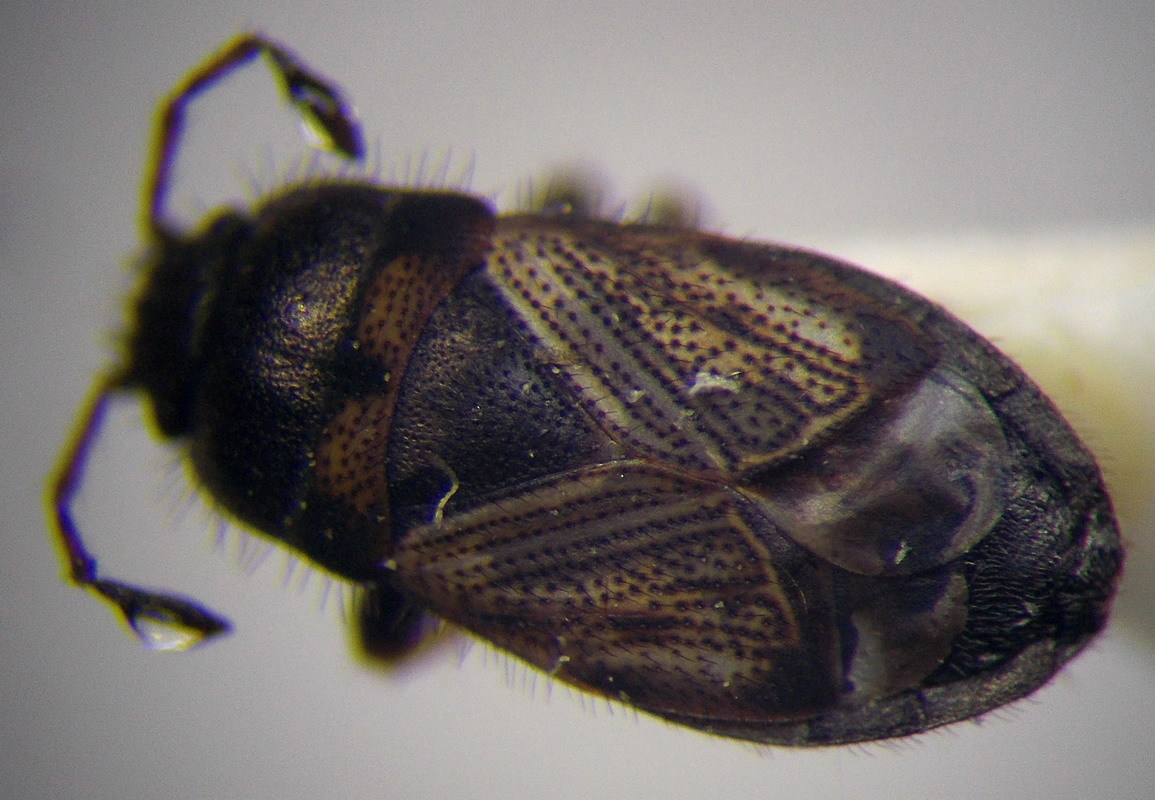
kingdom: Animalia
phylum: Arthropoda
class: Insecta
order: Hemiptera
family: Rhyparochromidae
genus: Pionosomus
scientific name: Pionosomus opacellus
